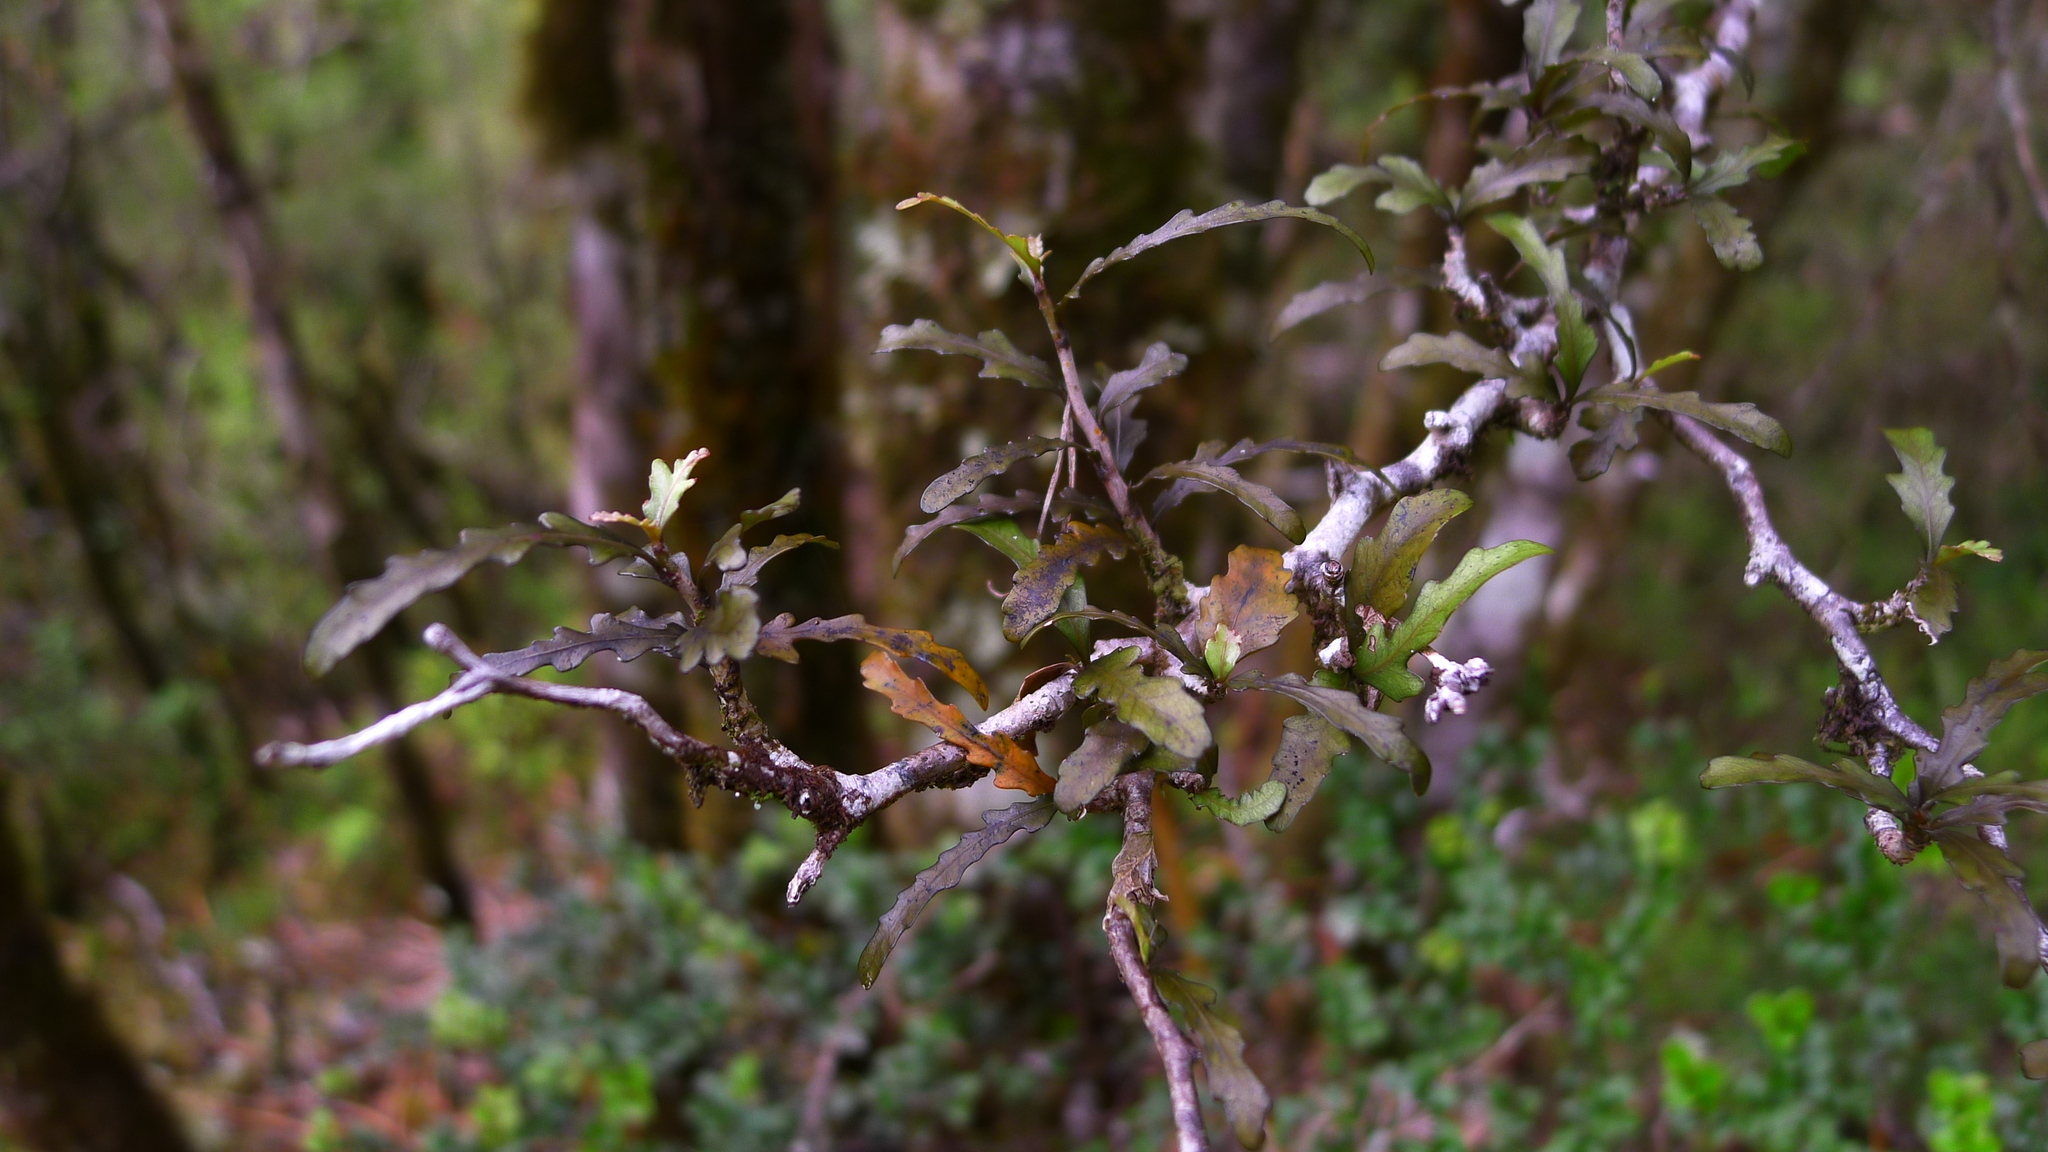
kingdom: Plantae
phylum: Tracheophyta
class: Magnoliopsida
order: Oxalidales
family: Elaeocarpaceae
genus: Elaeocarpus
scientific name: Elaeocarpus hookerianus
